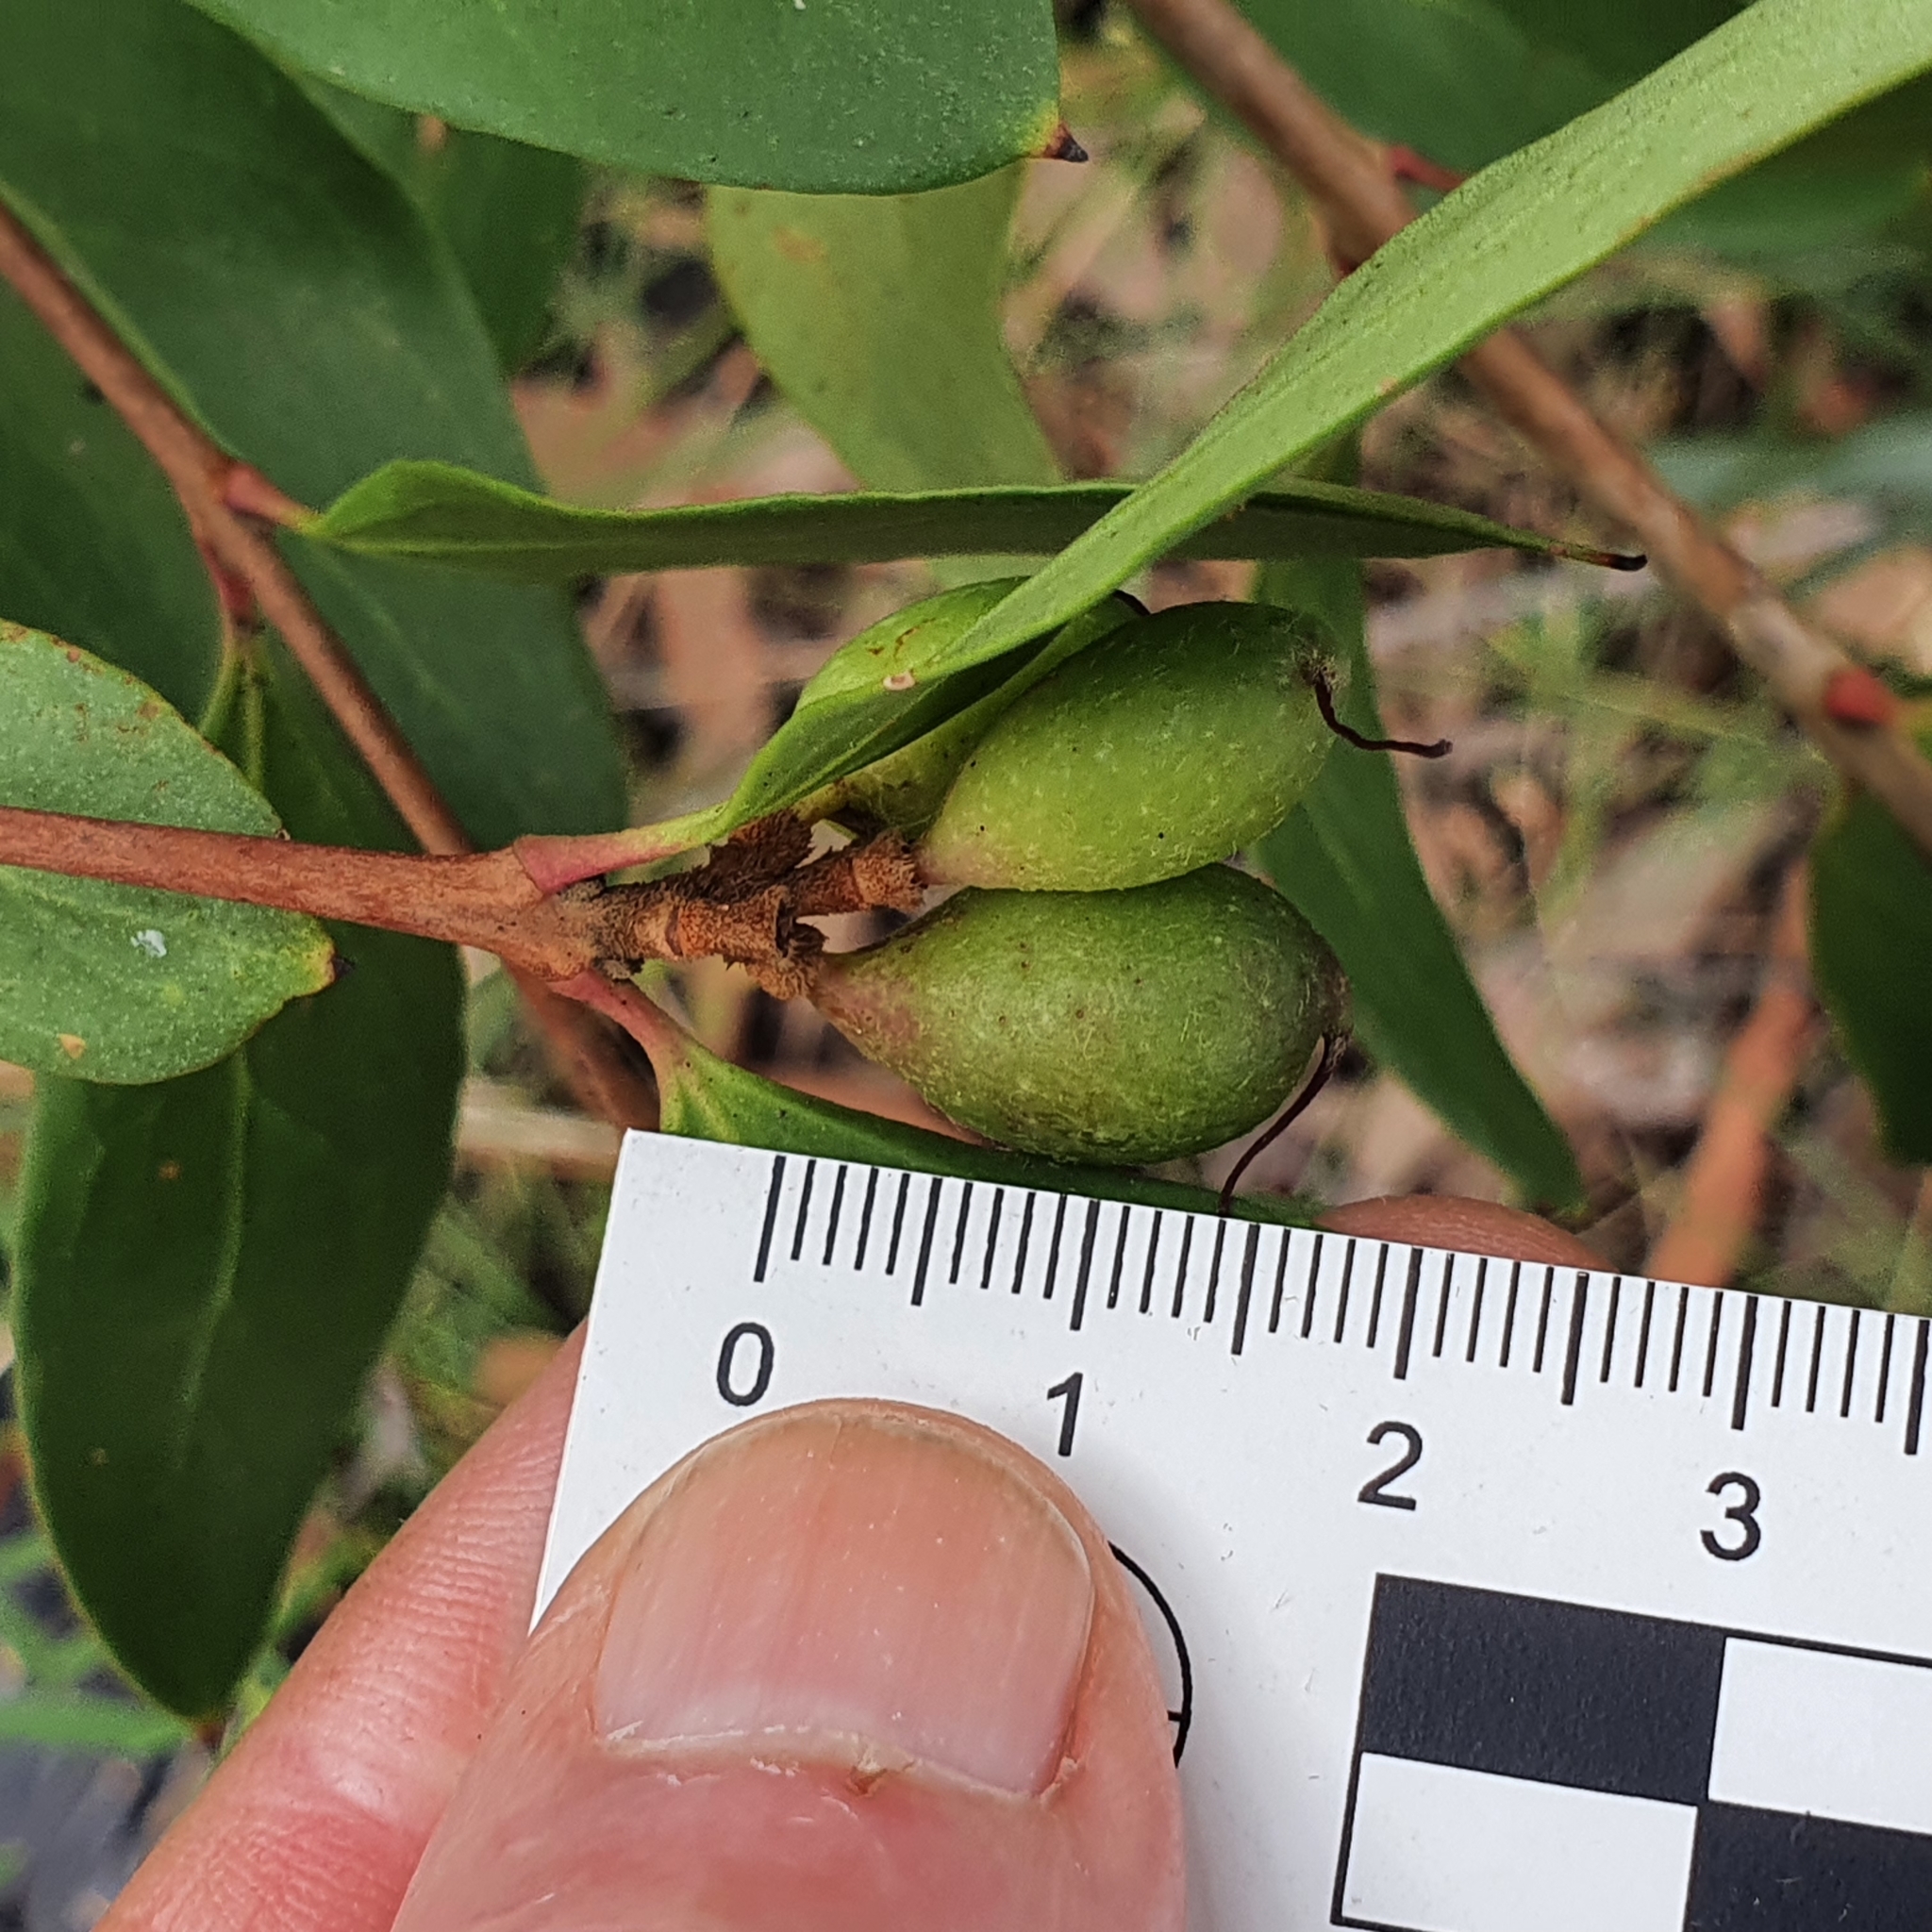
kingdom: Plantae
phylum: Tracheophyta
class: Magnoliopsida
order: Proteales
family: Proteaceae
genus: Persoonia
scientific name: Persoonia laurina
